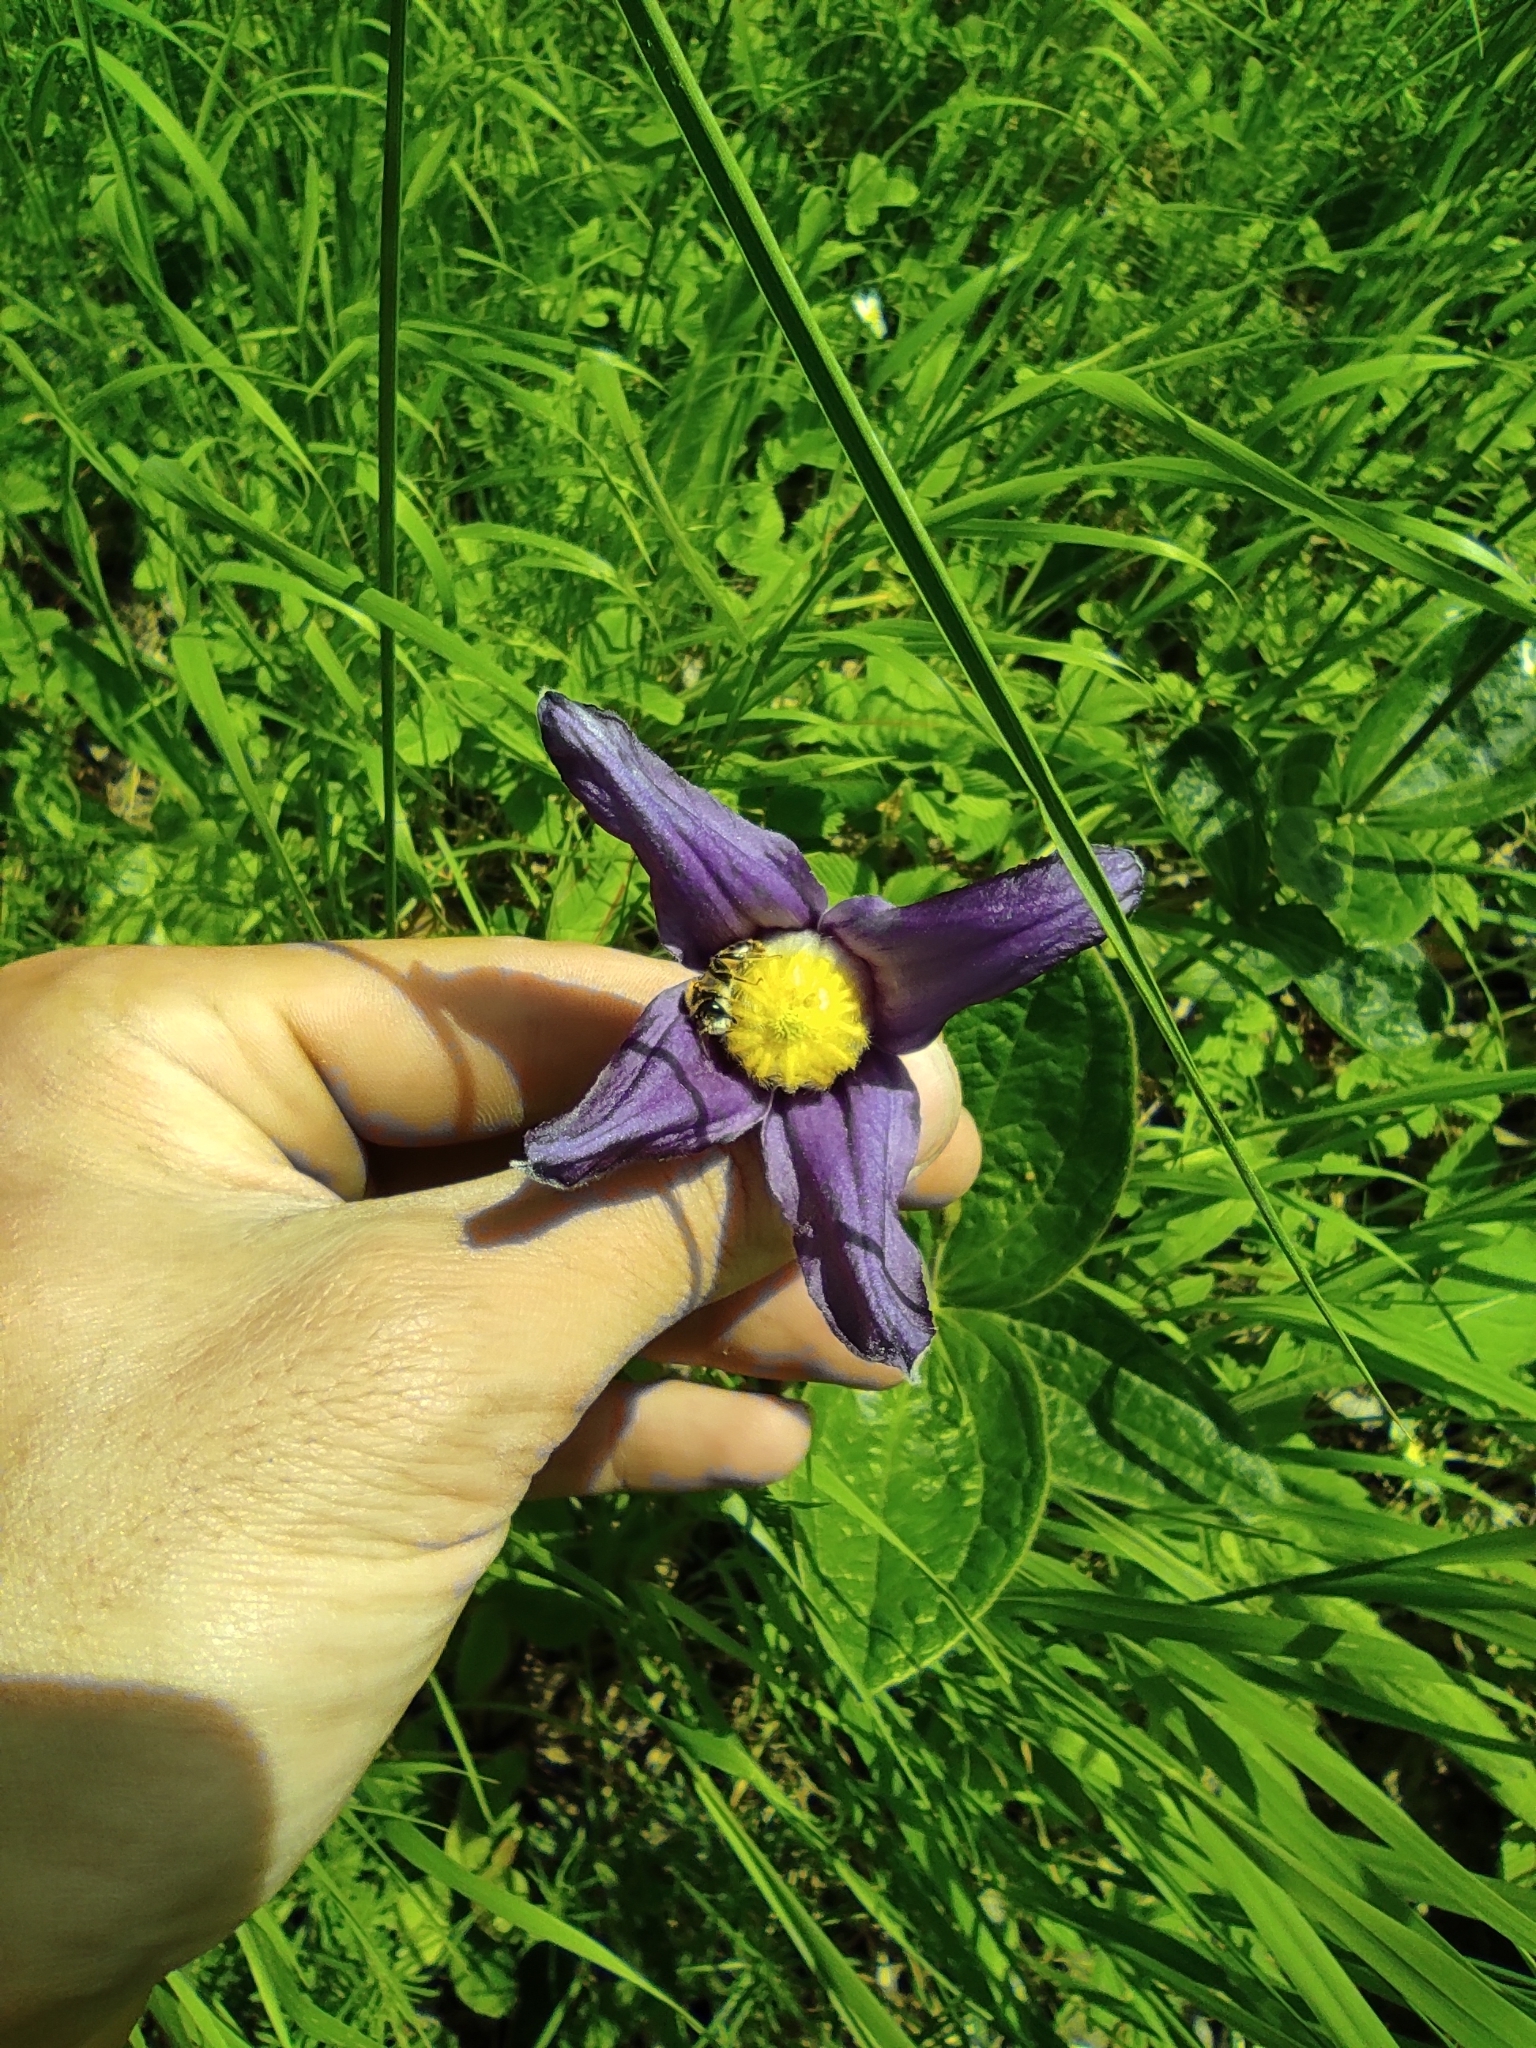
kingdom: Plantae
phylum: Tracheophyta
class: Magnoliopsida
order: Ranunculales
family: Ranunculaceae
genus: Clematis
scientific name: Clematis integrifolia
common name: Solitary clematis
